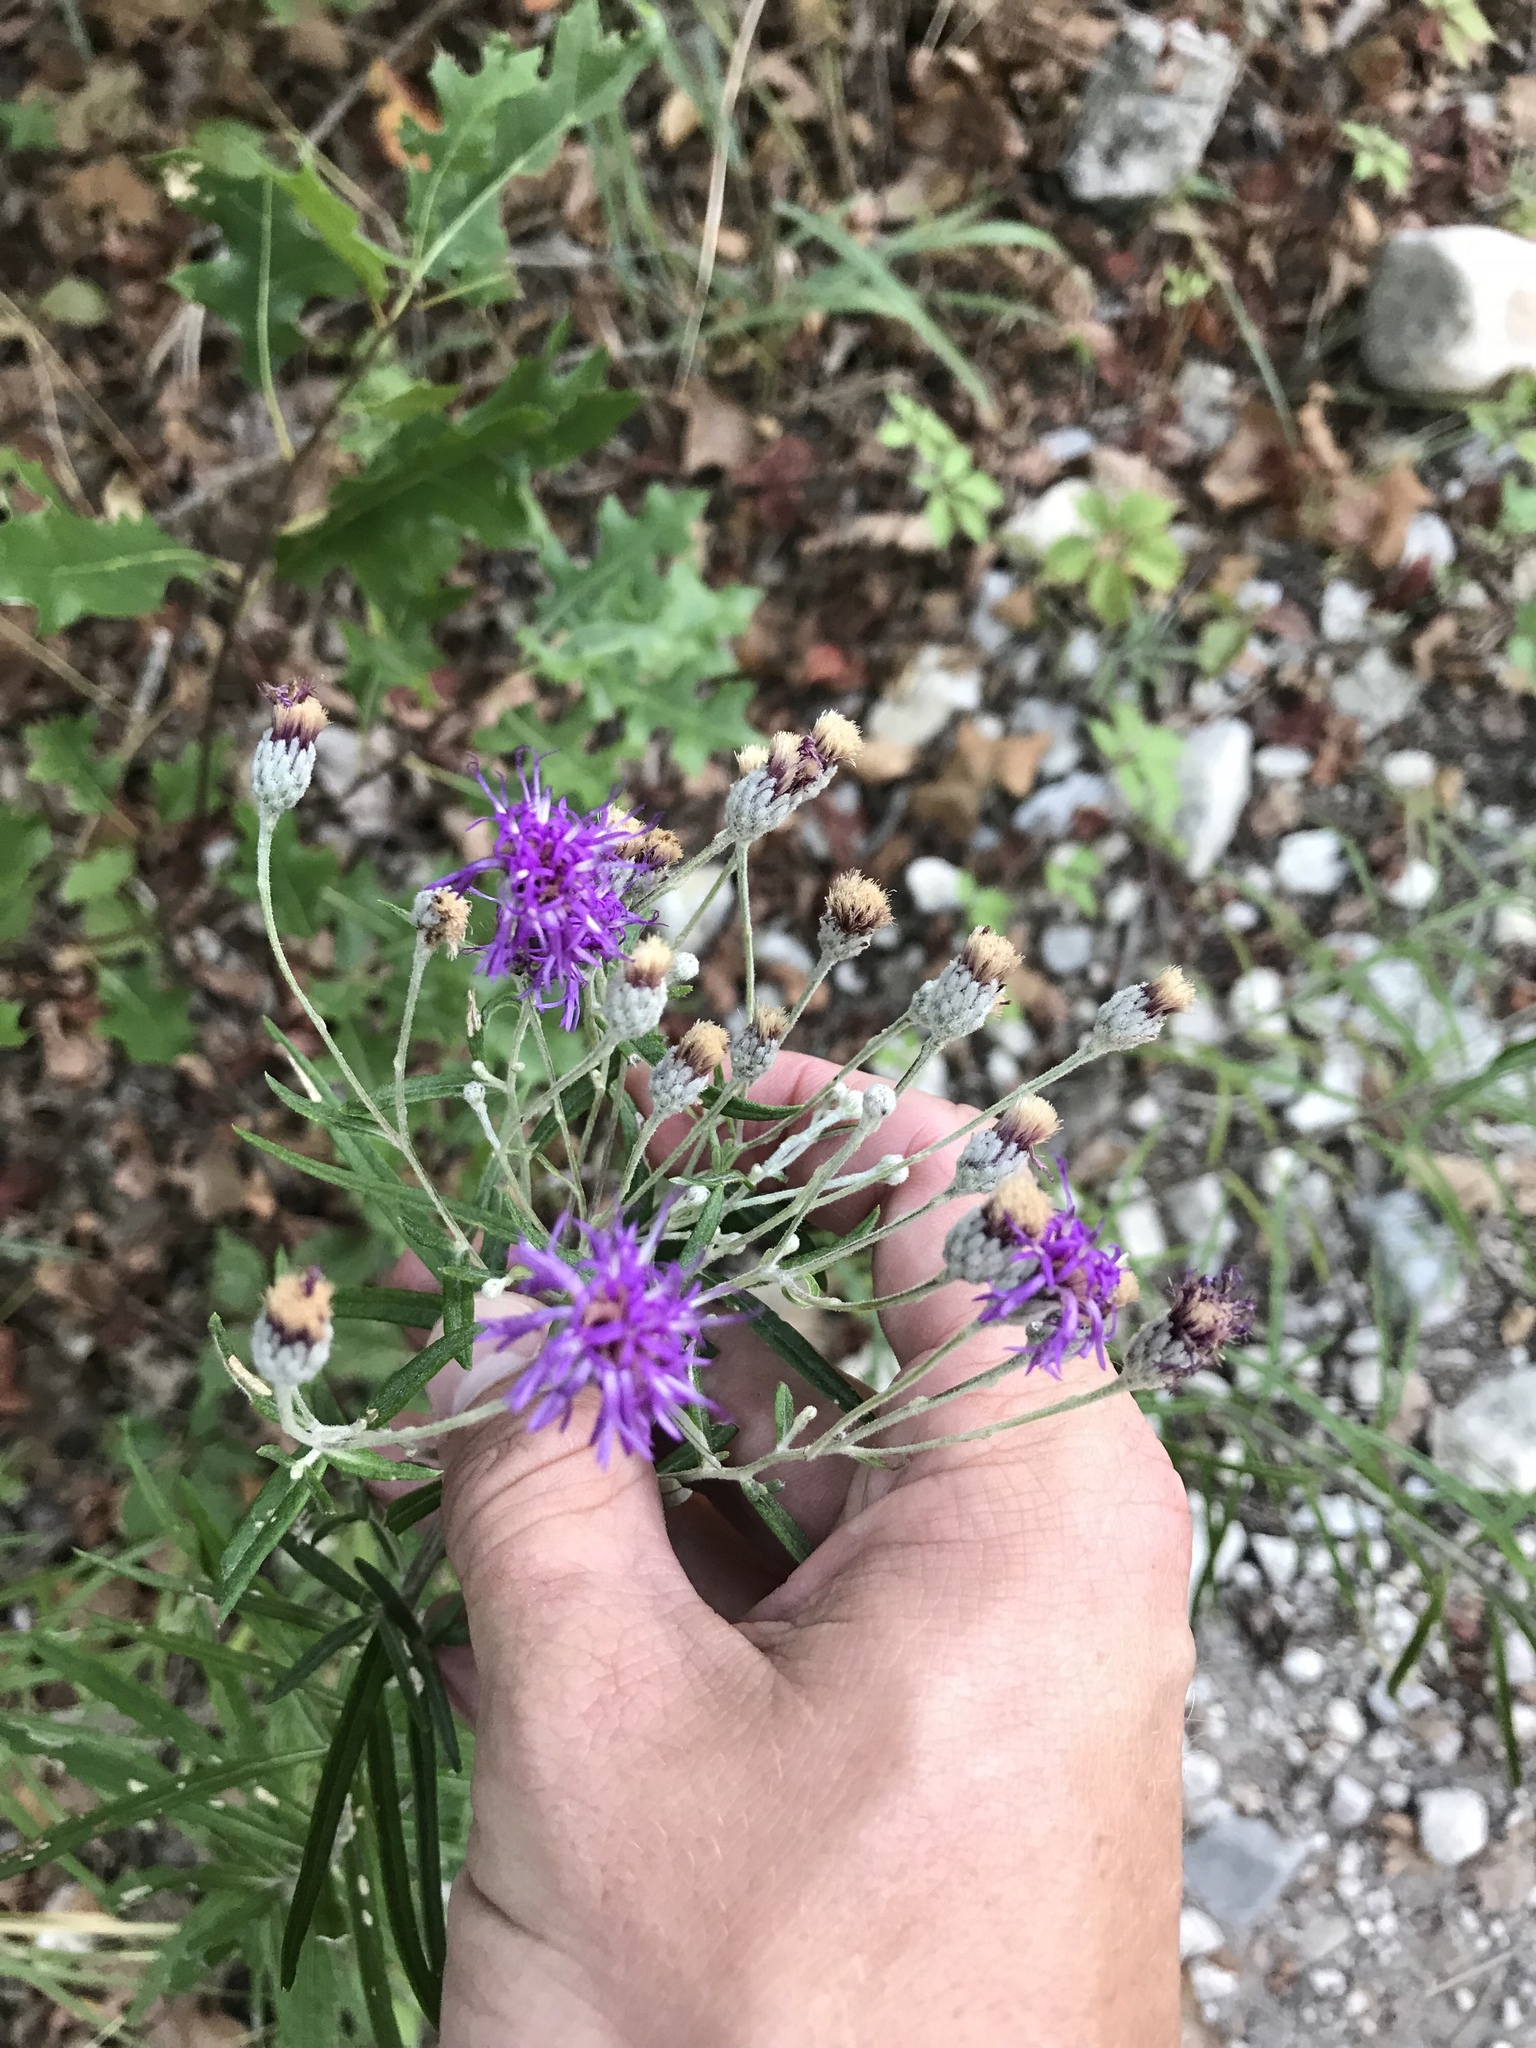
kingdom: Plantae
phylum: Tracheophyta
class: Magnoliopsida
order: Asterales
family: Asteraceae
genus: Vernonia
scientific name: Vernonia lindheimeri
